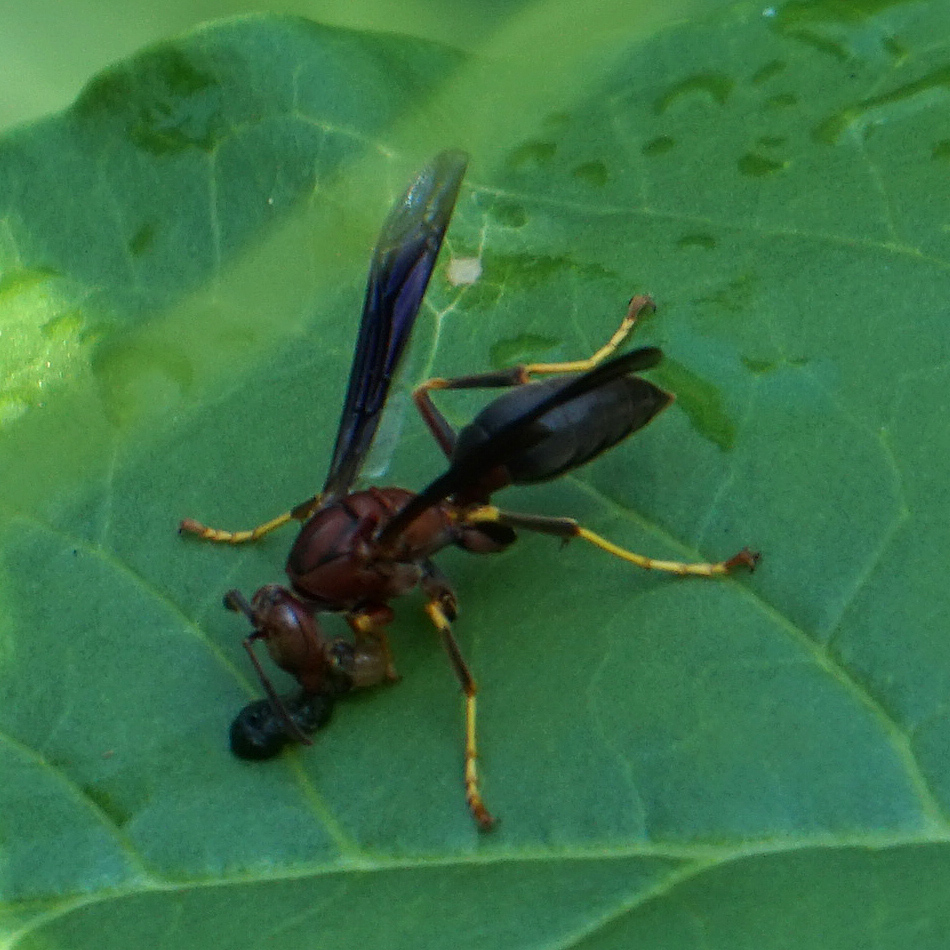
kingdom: Animalia
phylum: Arthropoda
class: Insecta
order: Hymenoptera
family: Eumenidae
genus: Polistes
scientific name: Polistes metricus
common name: Metric paper wasp
